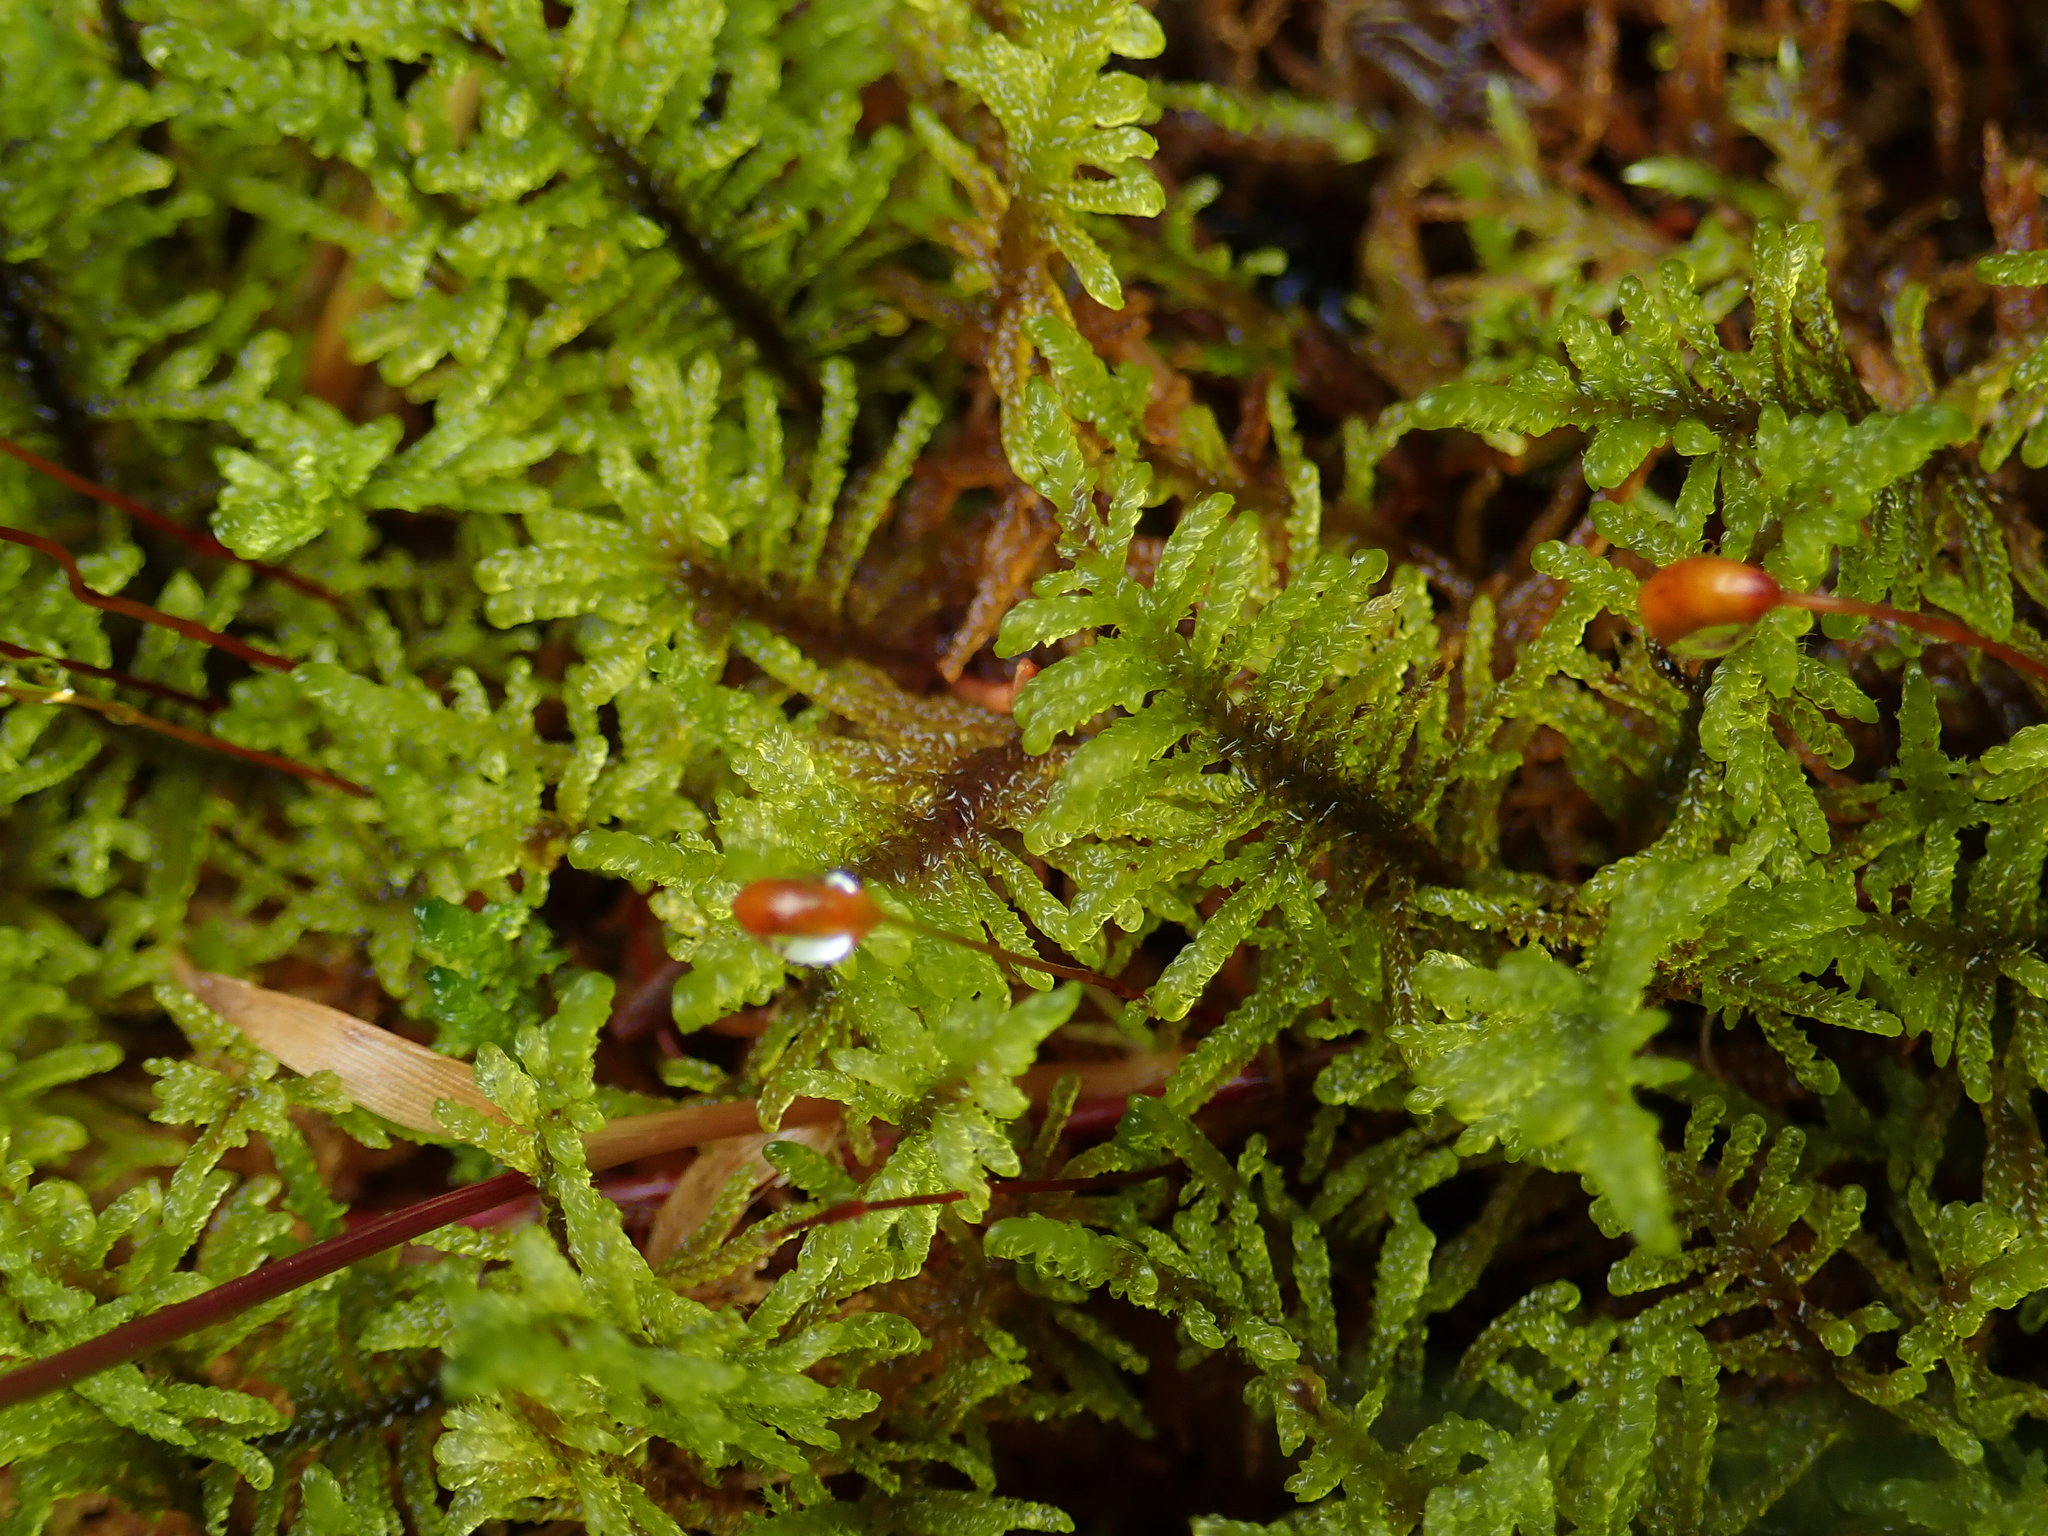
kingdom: Plantae
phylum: Bryophyta
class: Bryopsida
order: Hypnales
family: Amblystegiaceae
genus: Palustriella
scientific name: Palustriella commutata
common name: Curled hook-moss
